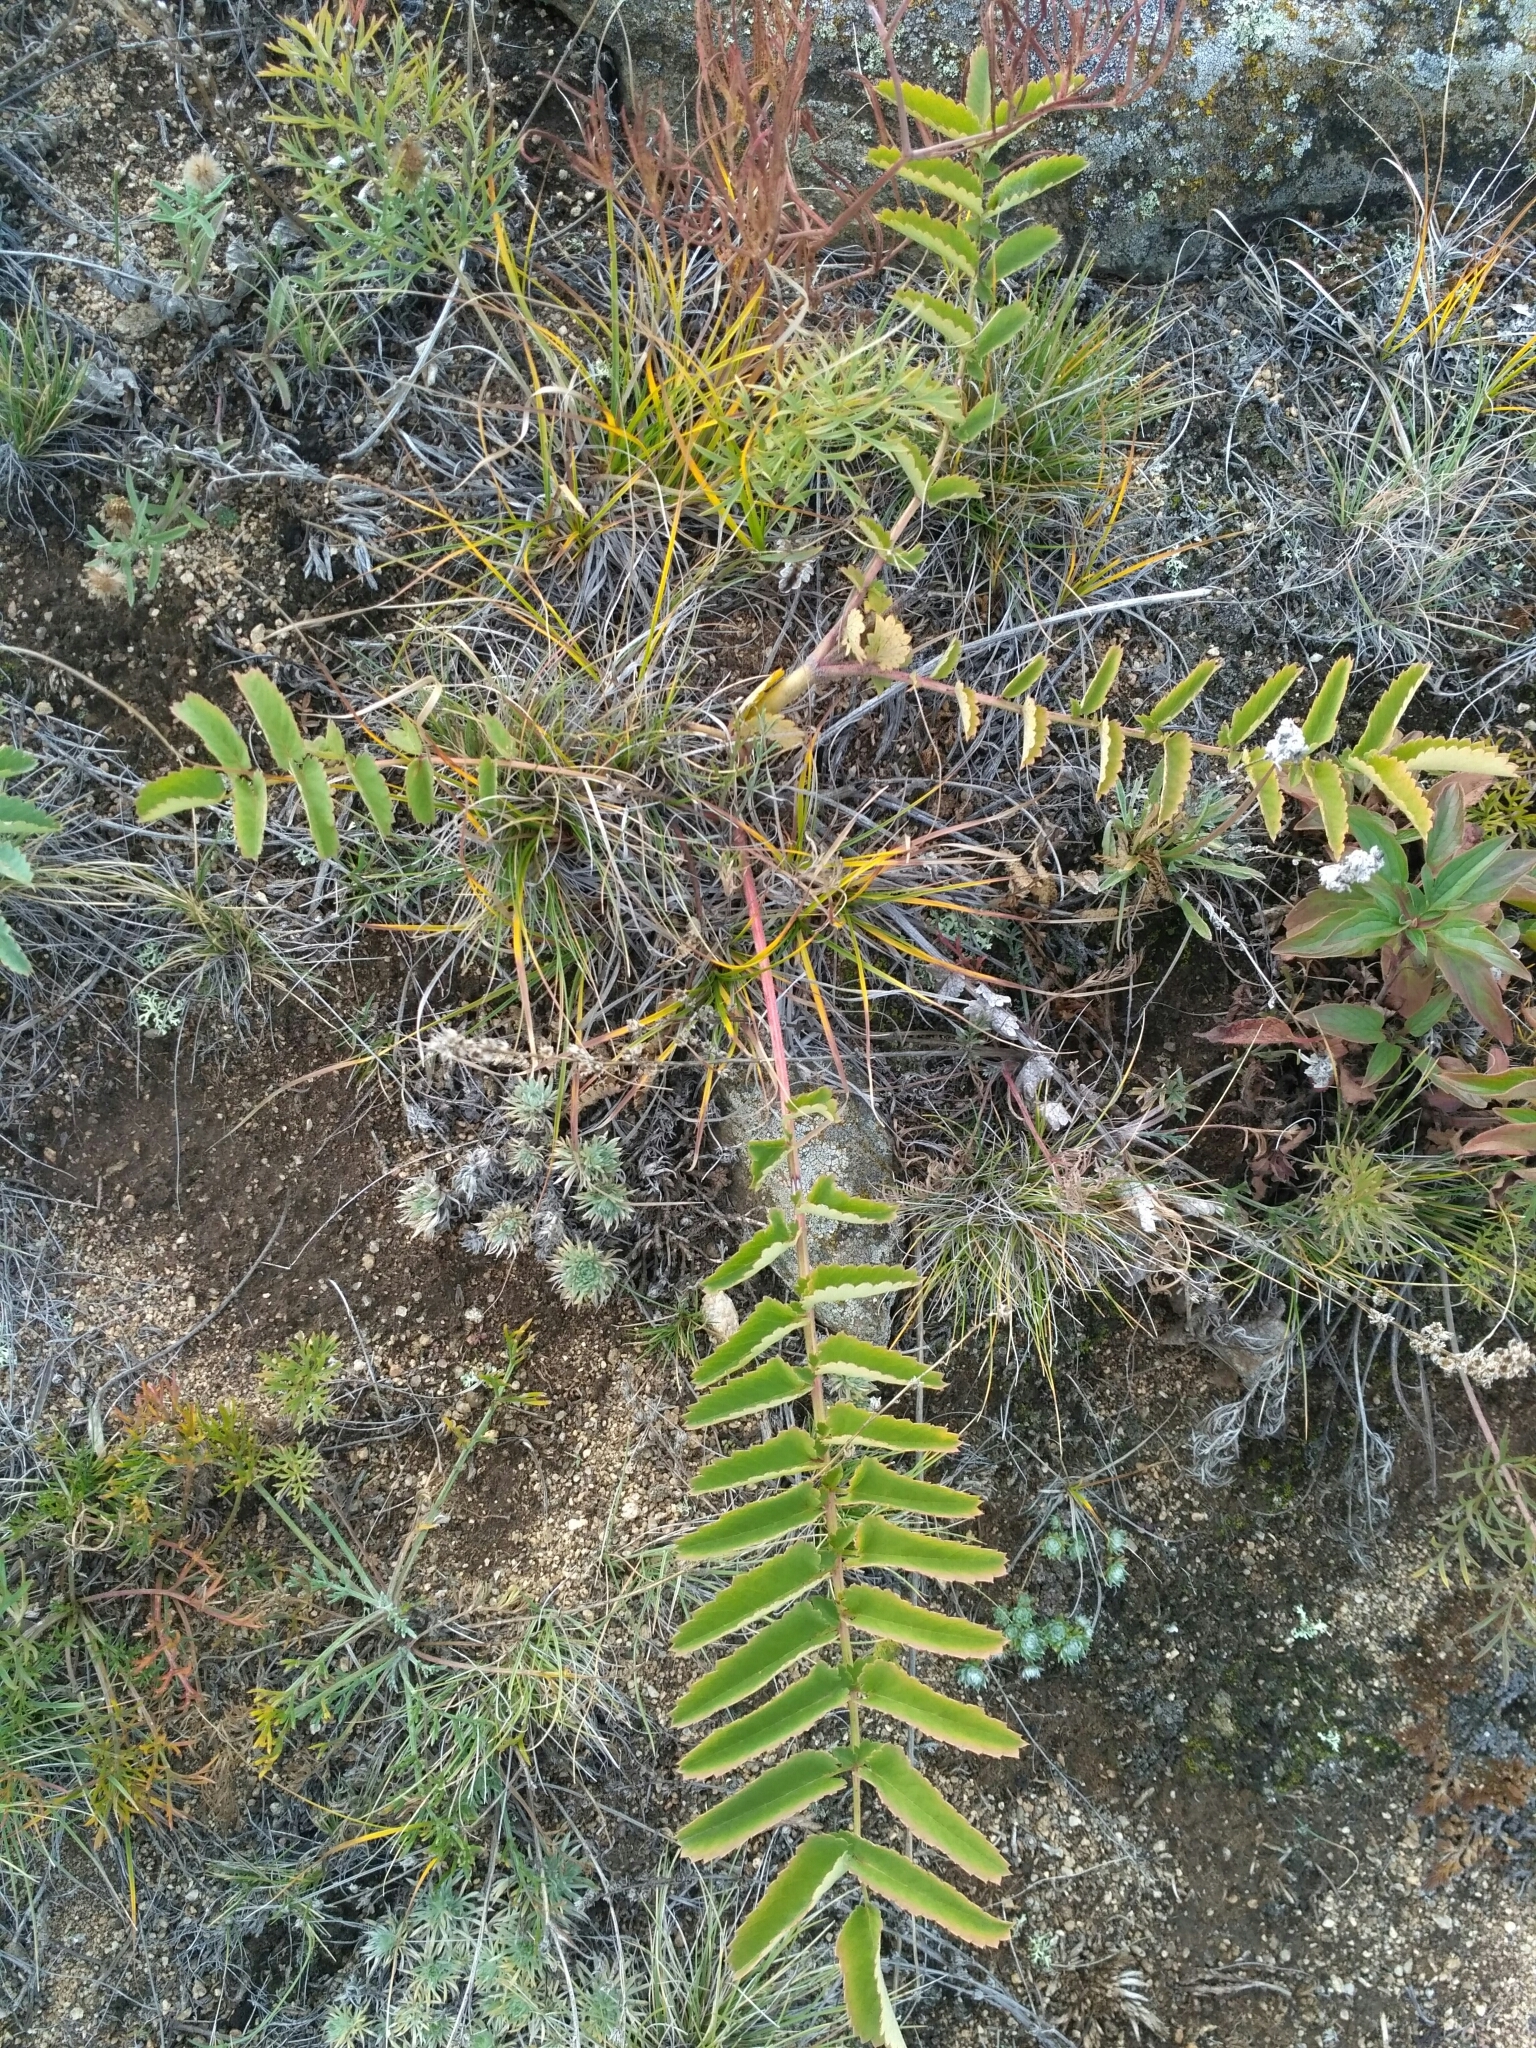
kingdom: Plantae
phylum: Tracheophyta
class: Magnoliopsida
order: Rosales
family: Rosaceae
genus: Sanguisorba
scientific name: Sanguisorba officinalis
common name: Great burnet
